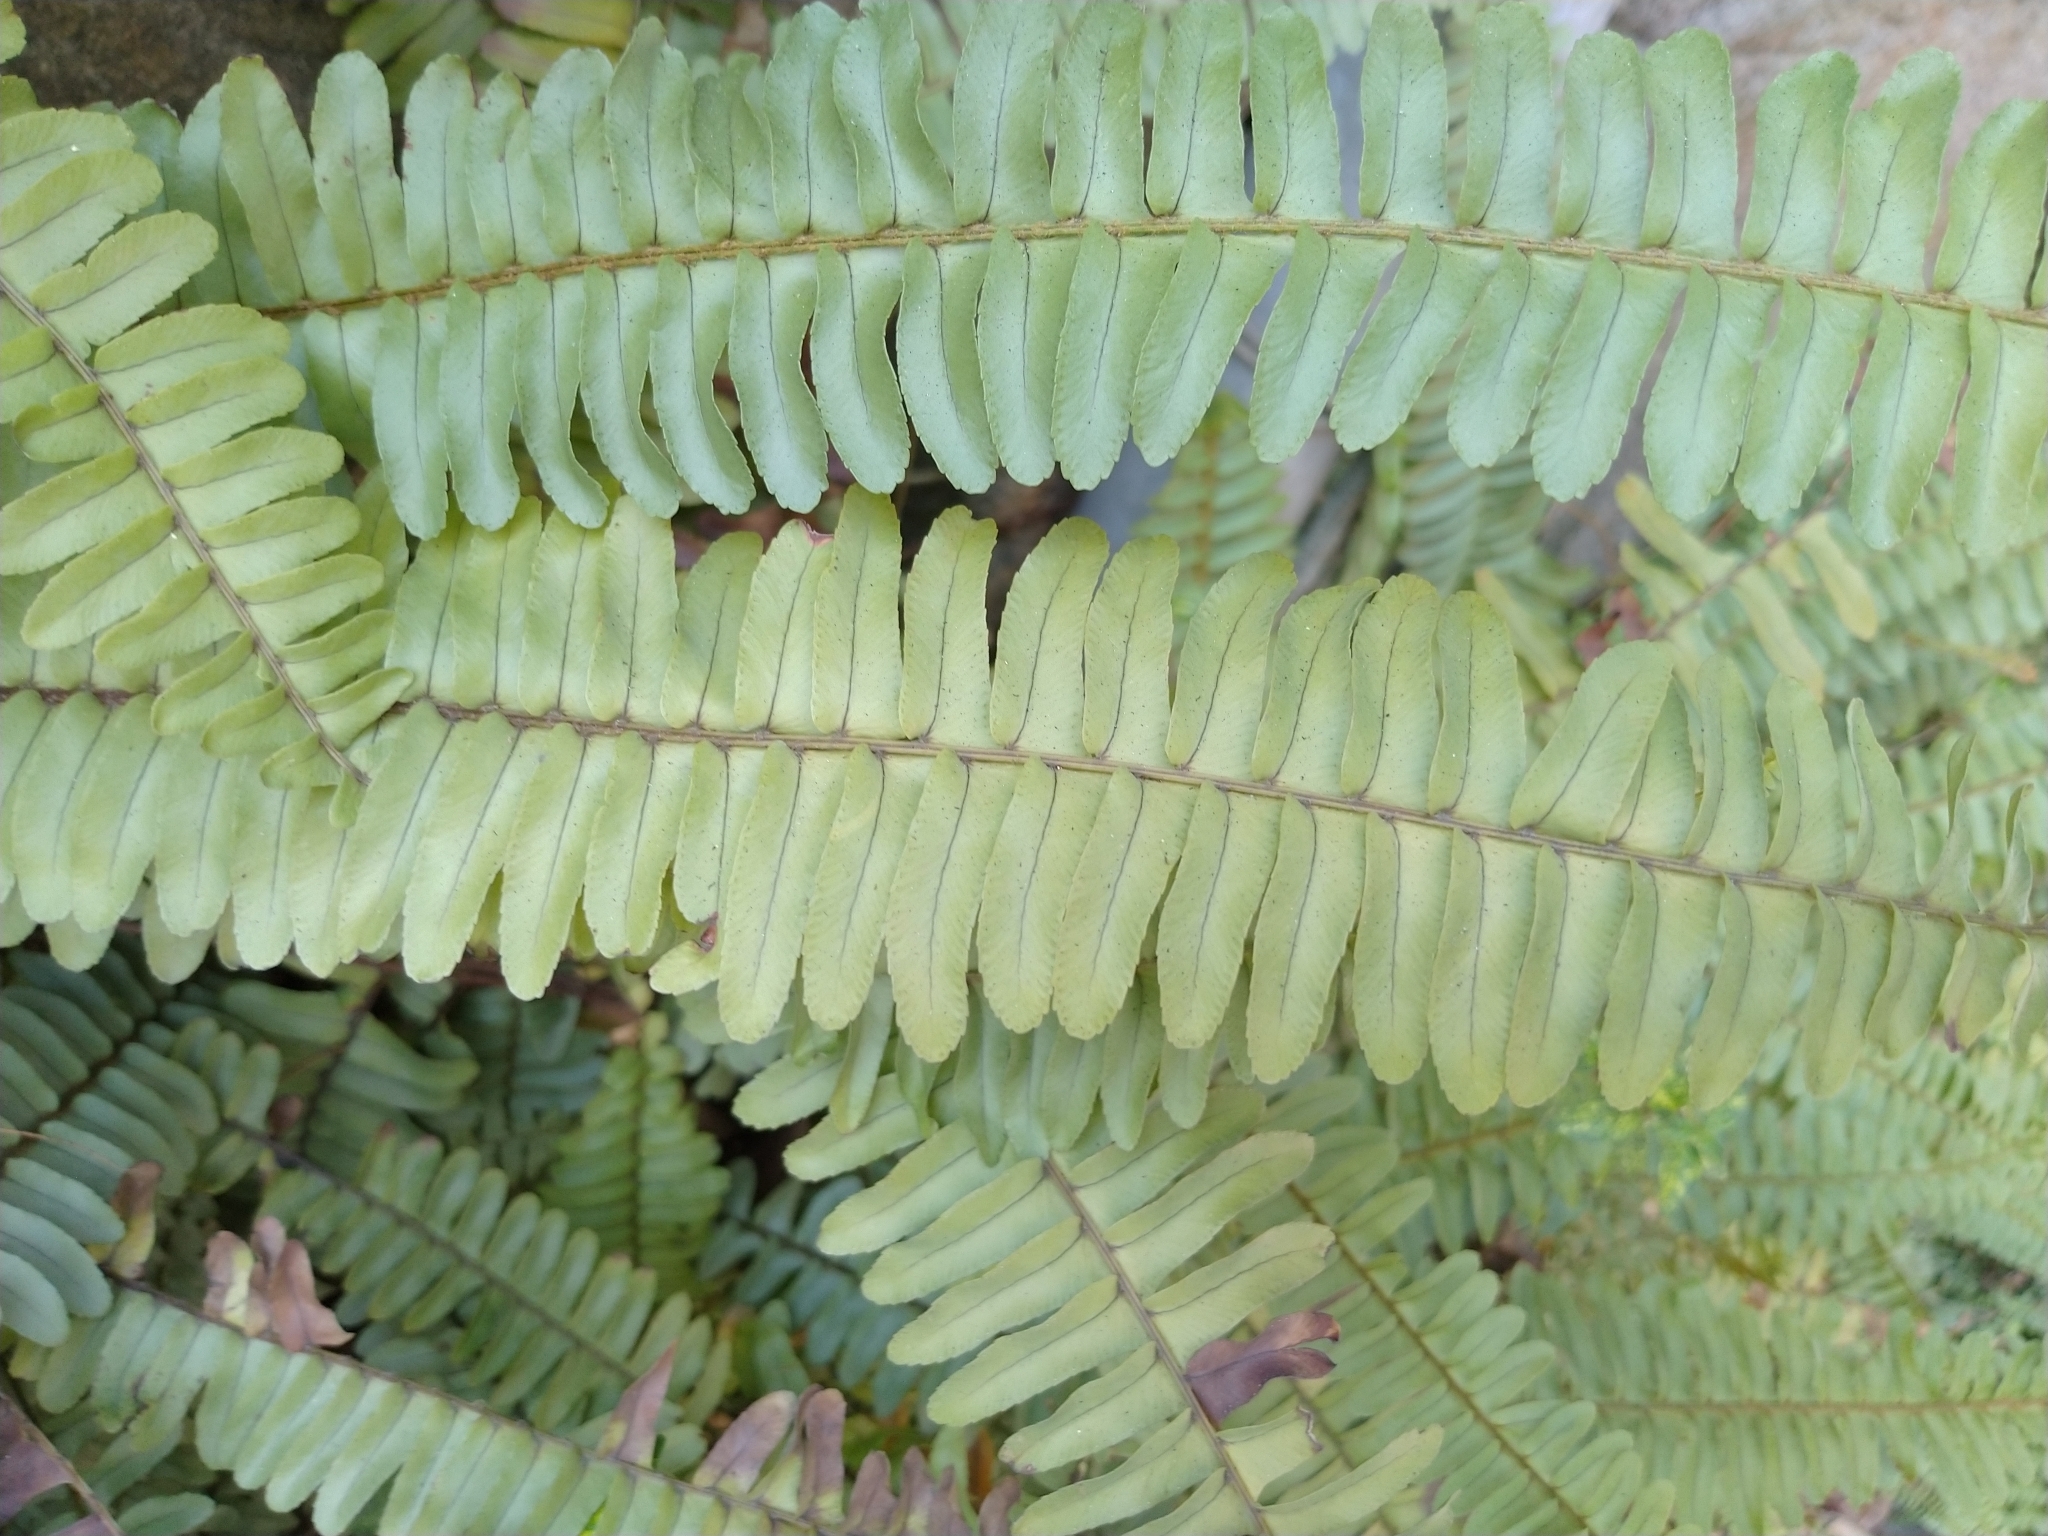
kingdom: Plantae
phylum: Tracheophyta
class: Polypodiopsida
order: Polypodiales
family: Nephrolepidaceae
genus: Nephrolepis
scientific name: Nephrolepis cordifolia
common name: Narrow swordfern
